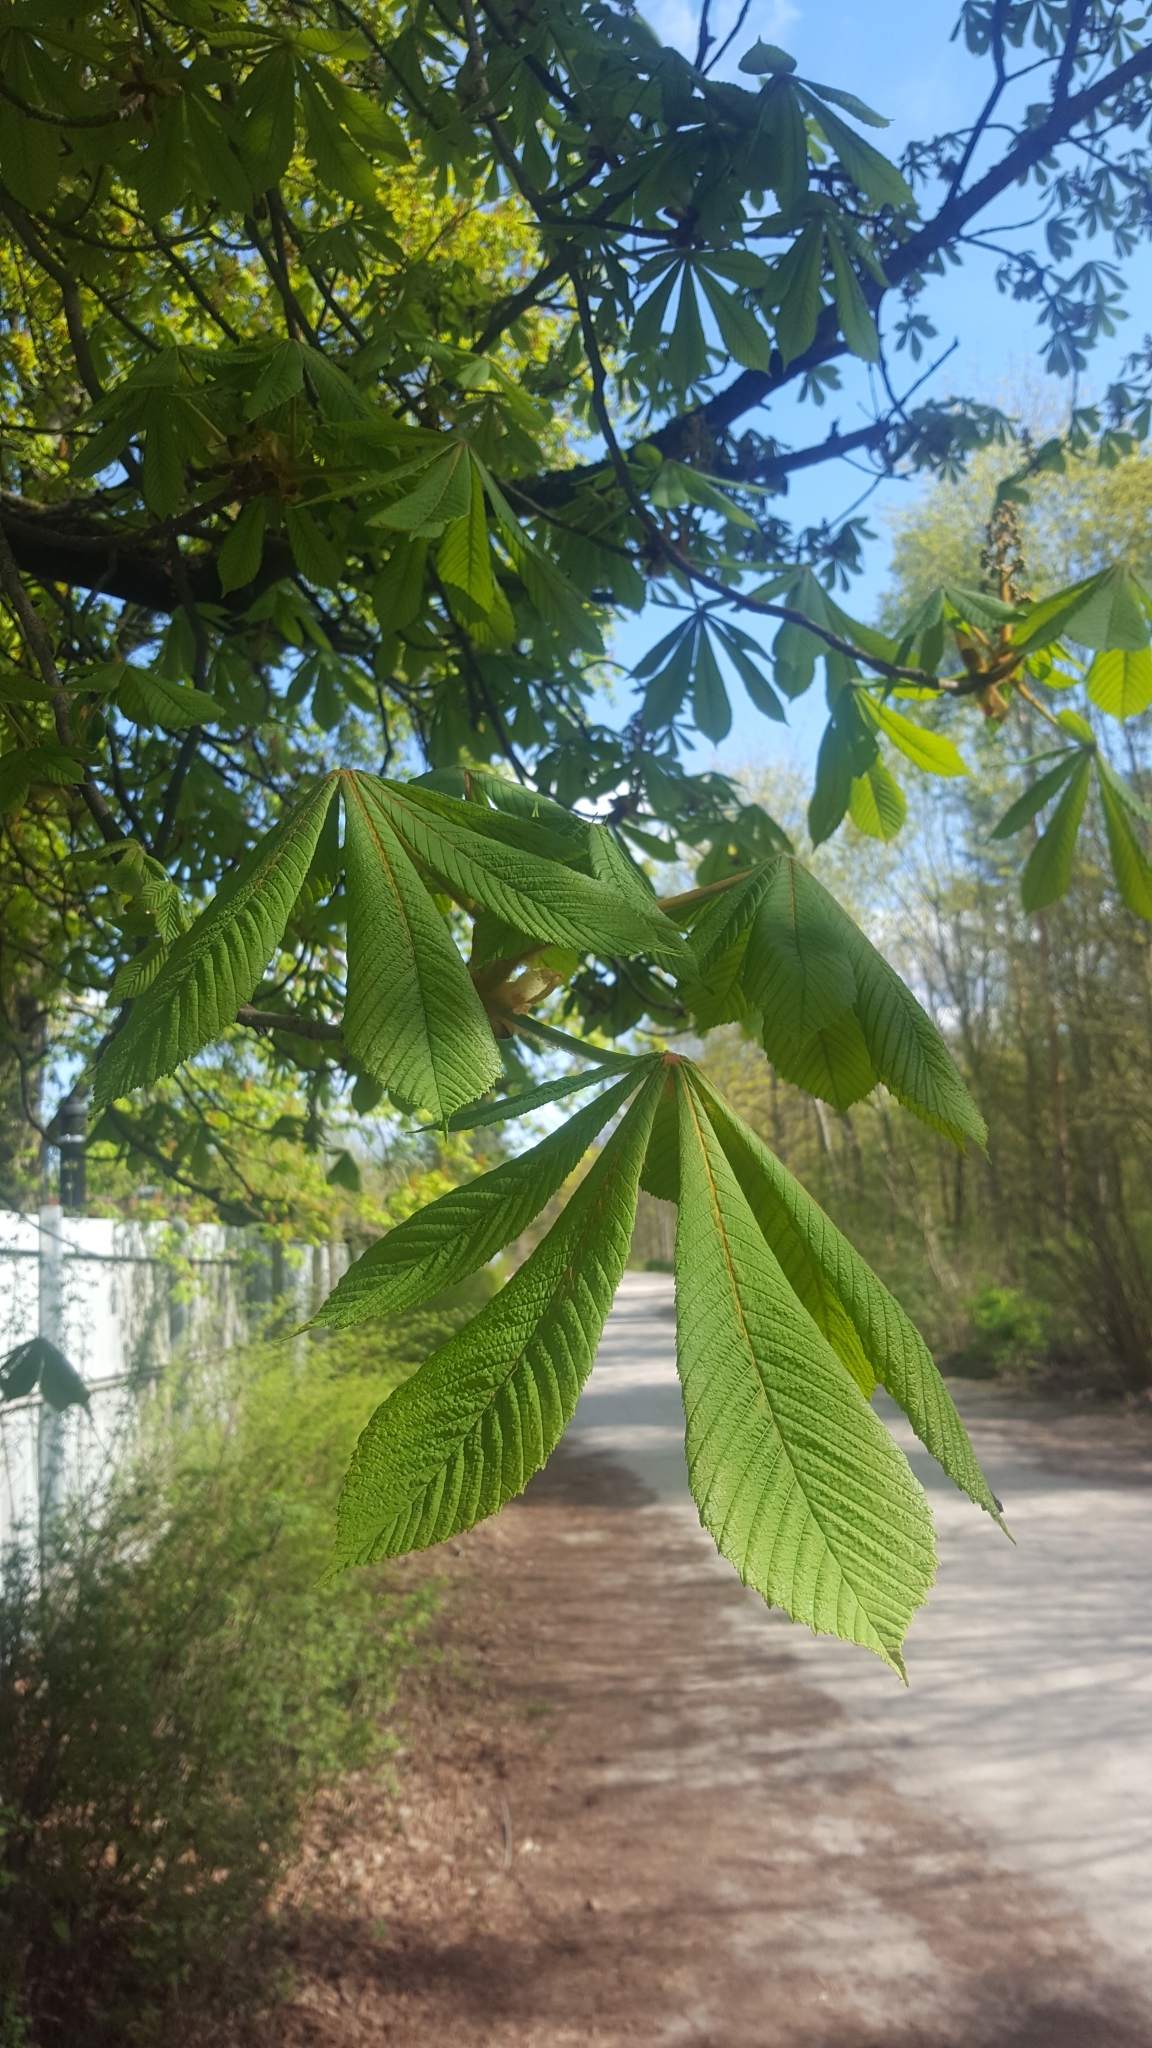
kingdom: Plantae
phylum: Tracheophyta
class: Magnoliopsida
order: Sapindales
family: Sapindaceae
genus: Aesculus
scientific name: Aesculus hippocastanum
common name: Horse-chestnut
